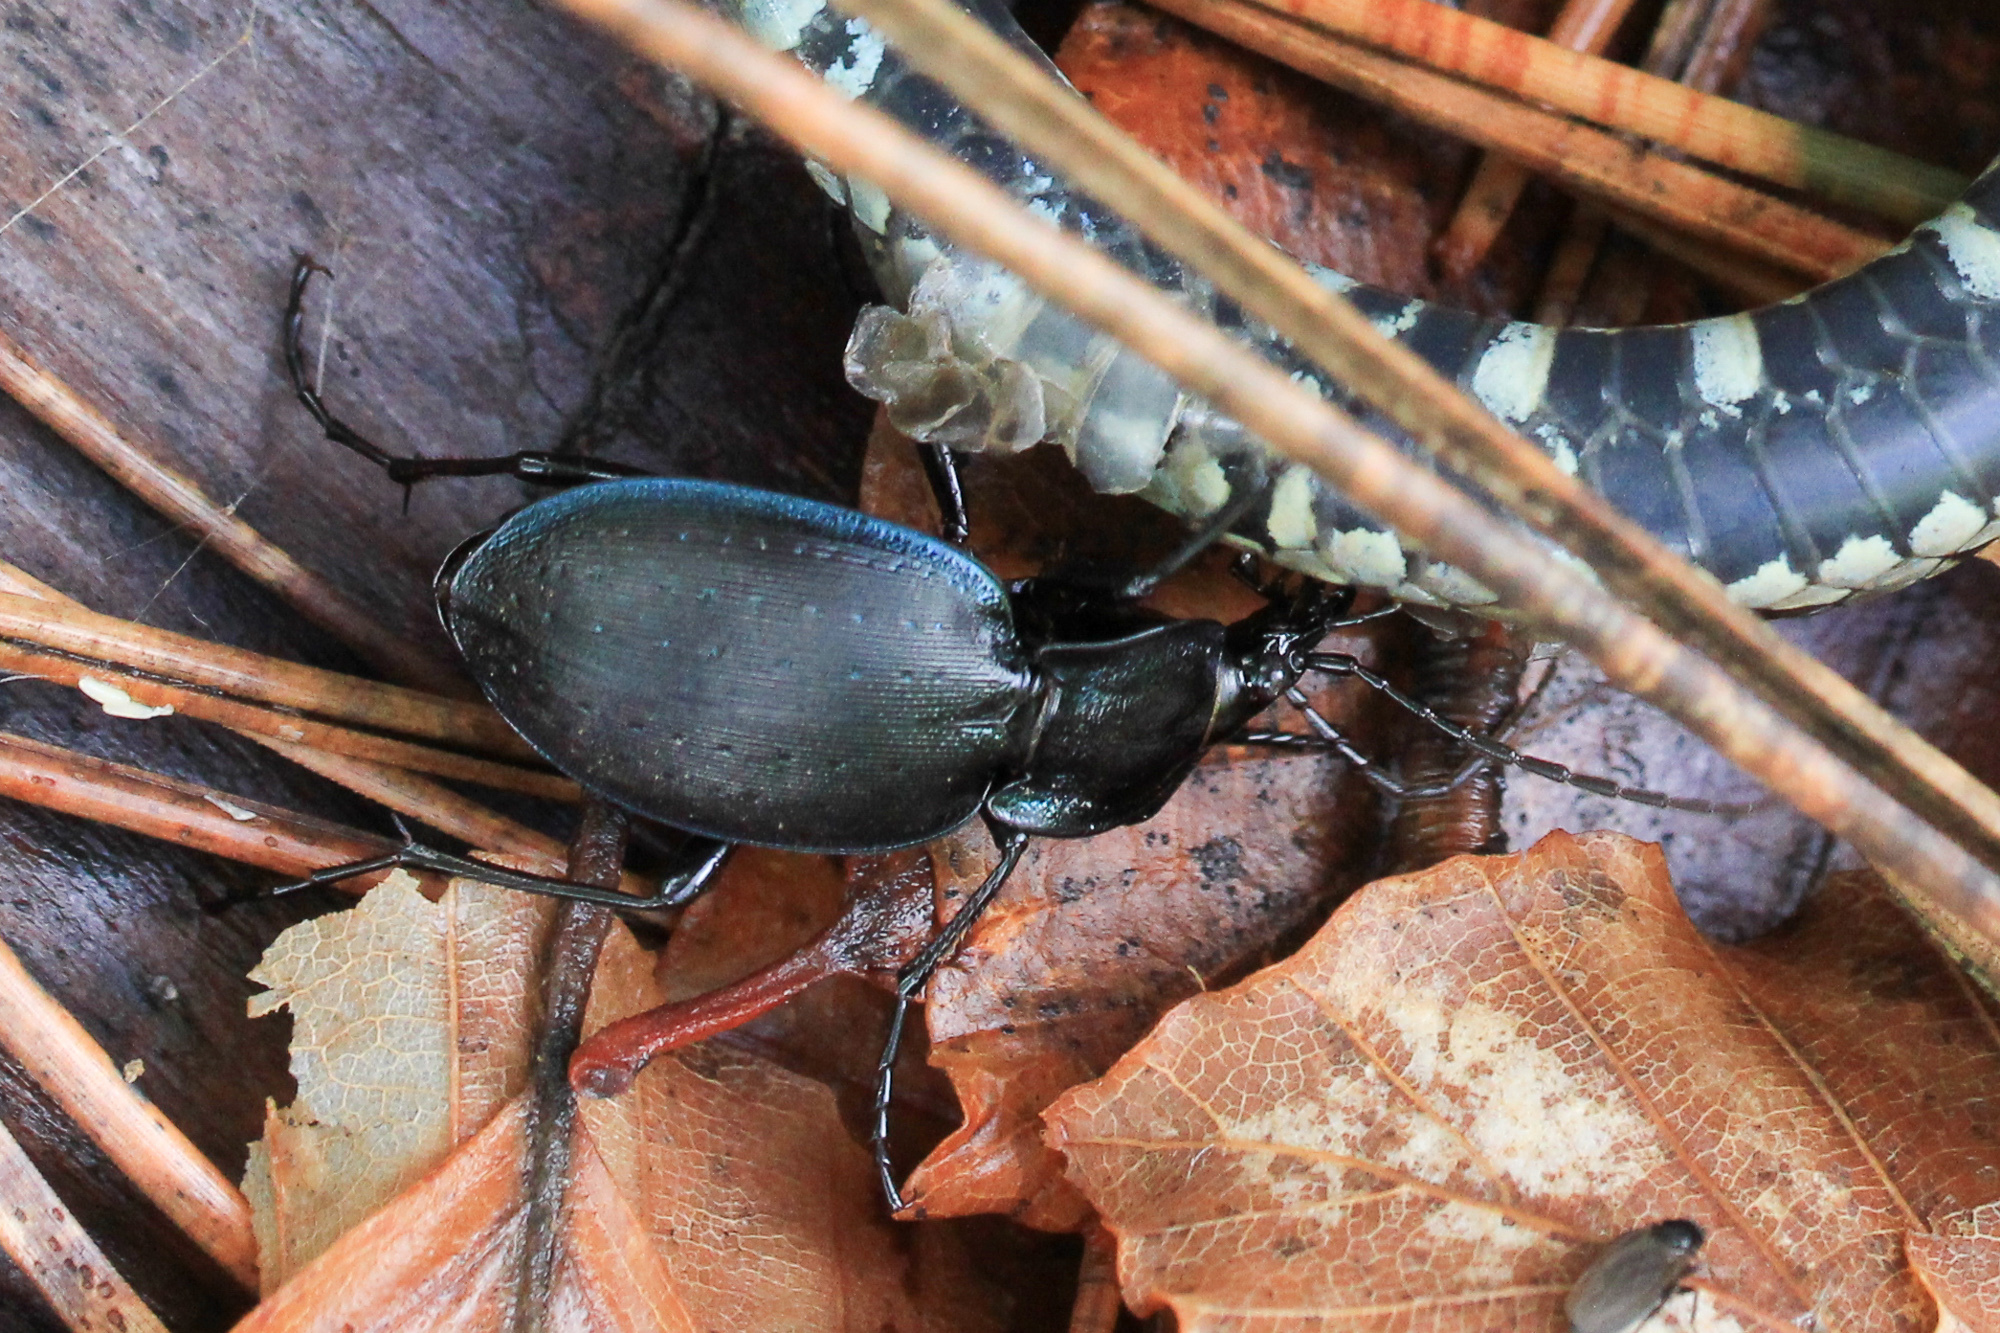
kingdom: Animalia
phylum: Arthropoda
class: Insecta
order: Coleoptera
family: Carabidae
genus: Carabus
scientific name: Carabus neumeyeri
